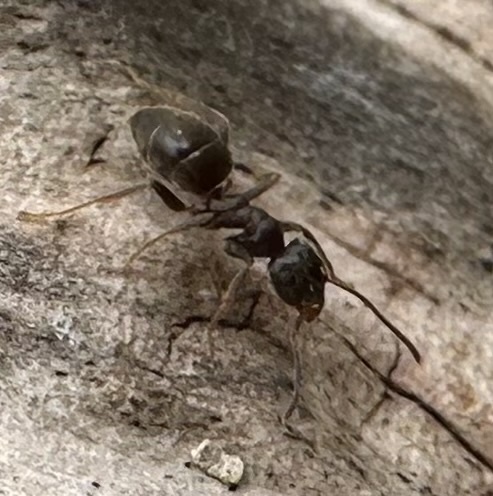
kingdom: Animalia
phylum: Arthropoda
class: Insecta
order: Hymenoptera
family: Formicidae
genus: Lasius
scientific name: Lasius niger
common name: Small black ant
